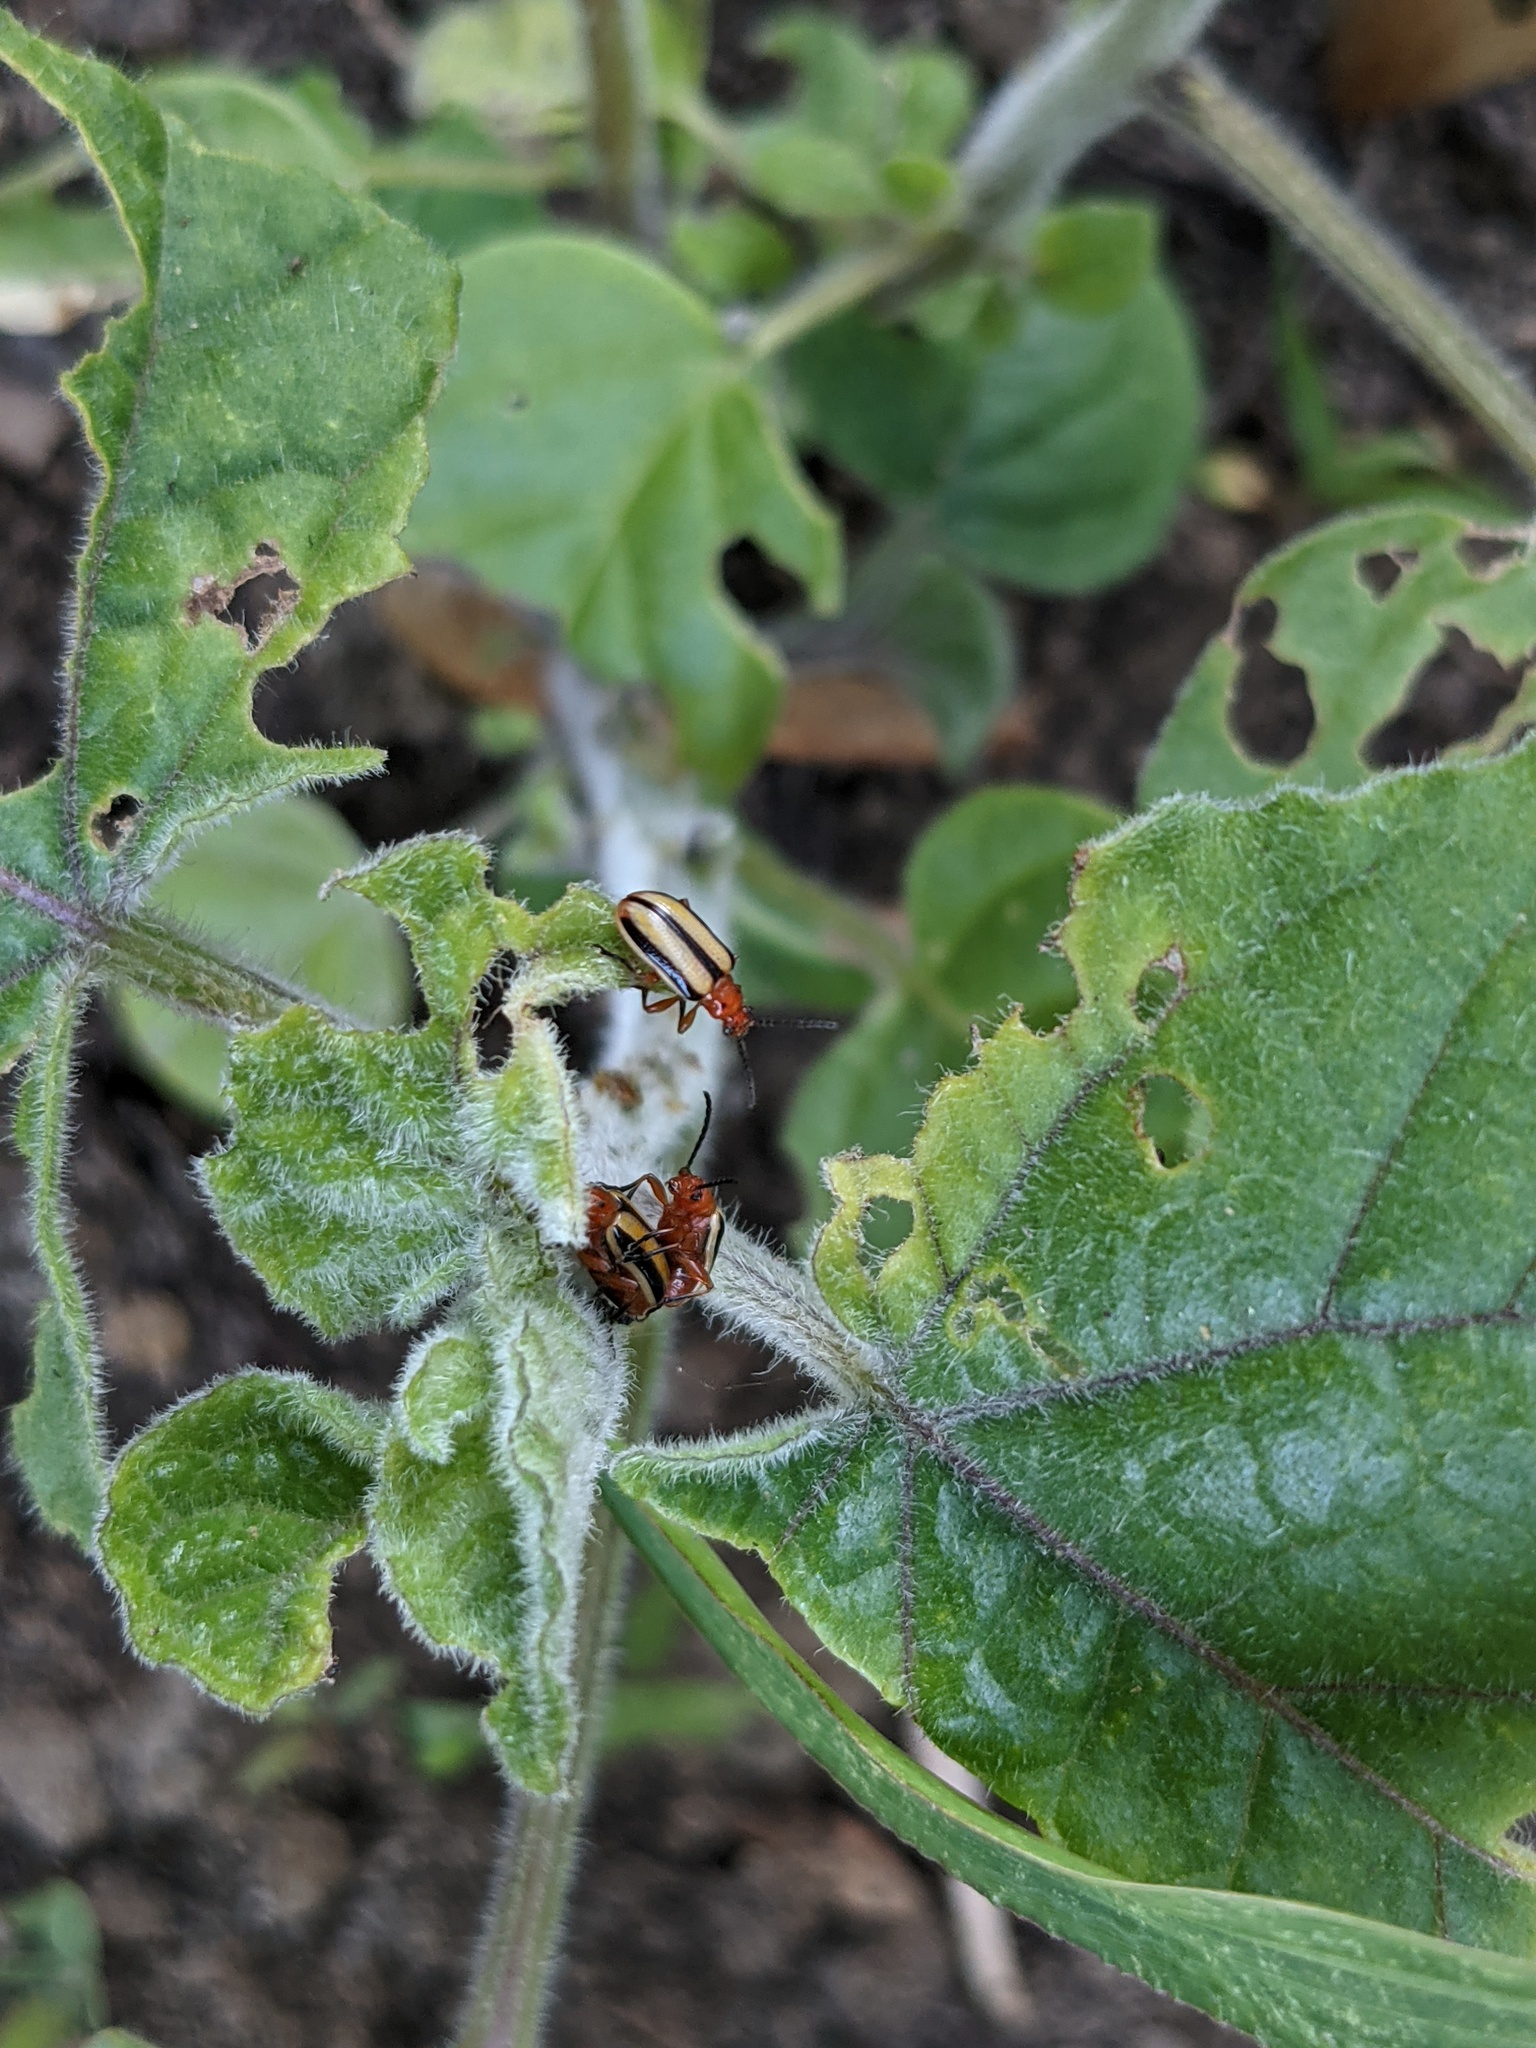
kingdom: Animalia
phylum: Arthropoda
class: Insecta
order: Coleoptera
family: Chrysomelidae
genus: Lema
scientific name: Lema daturaphila
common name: Leaf beetle
